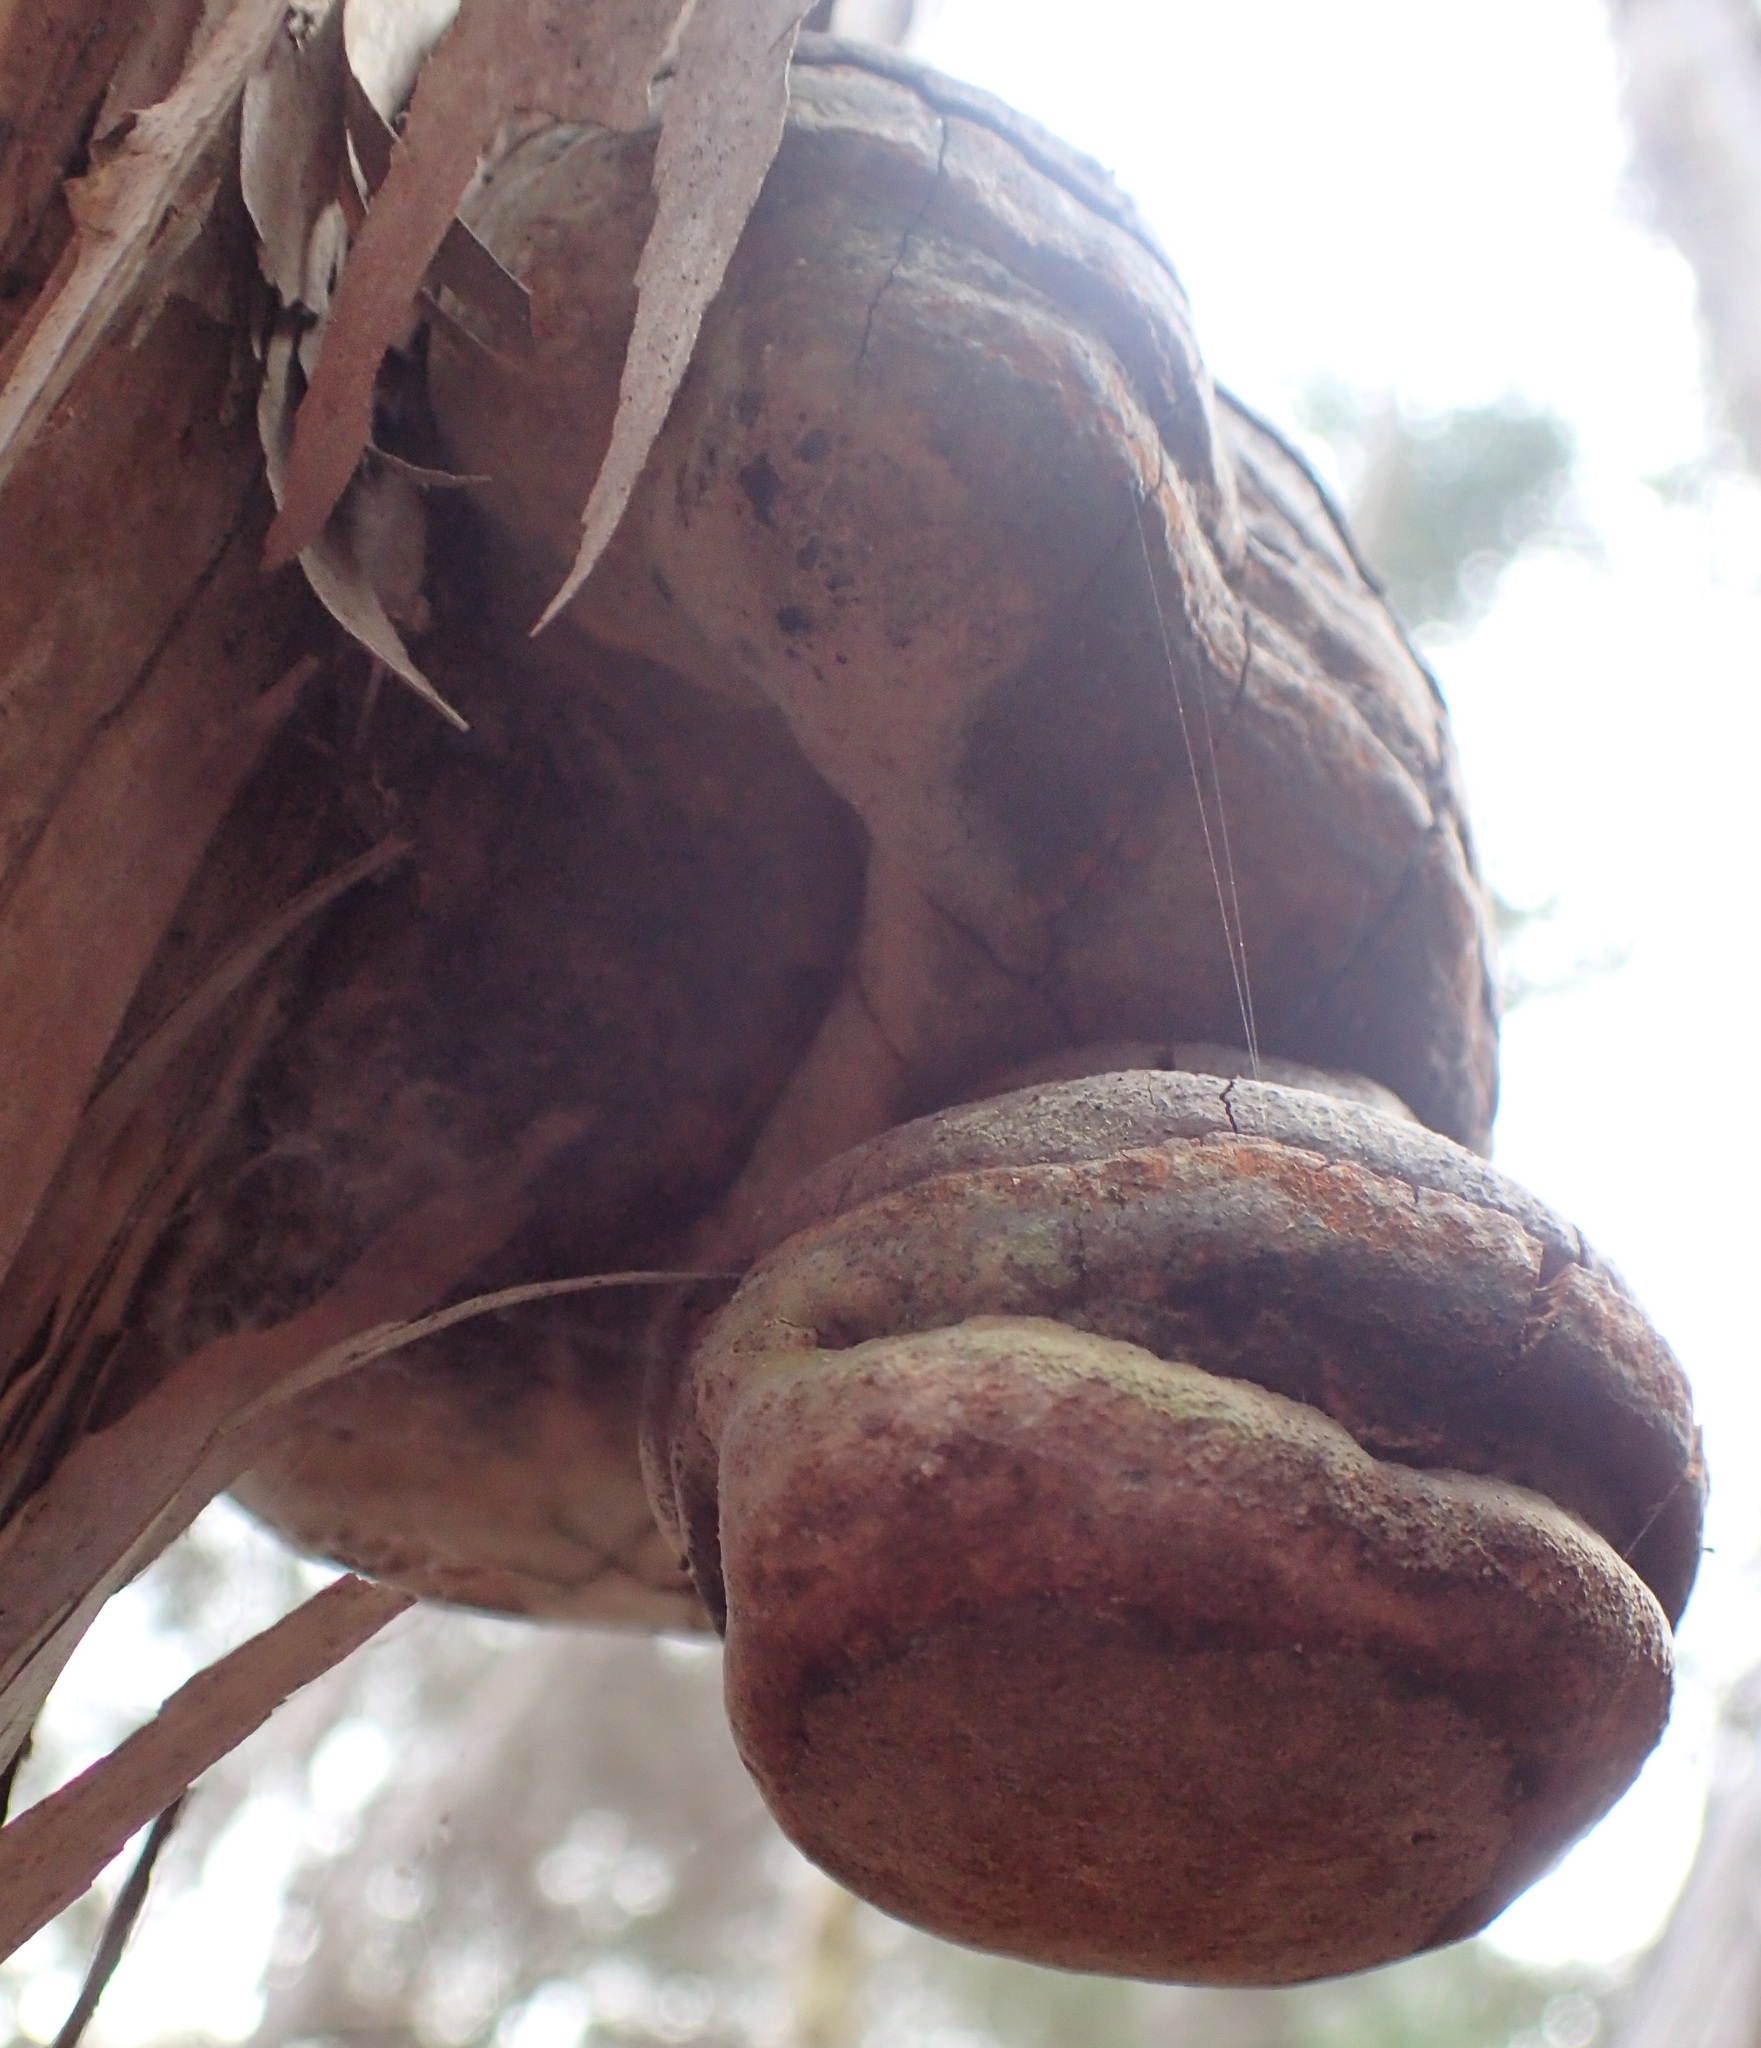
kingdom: Fungi
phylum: Basidiomycota
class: Agaricomycetes
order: Polyporales
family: Polyporaceae
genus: Ganoderma
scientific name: Ganoderma australe
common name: Southern bracket
